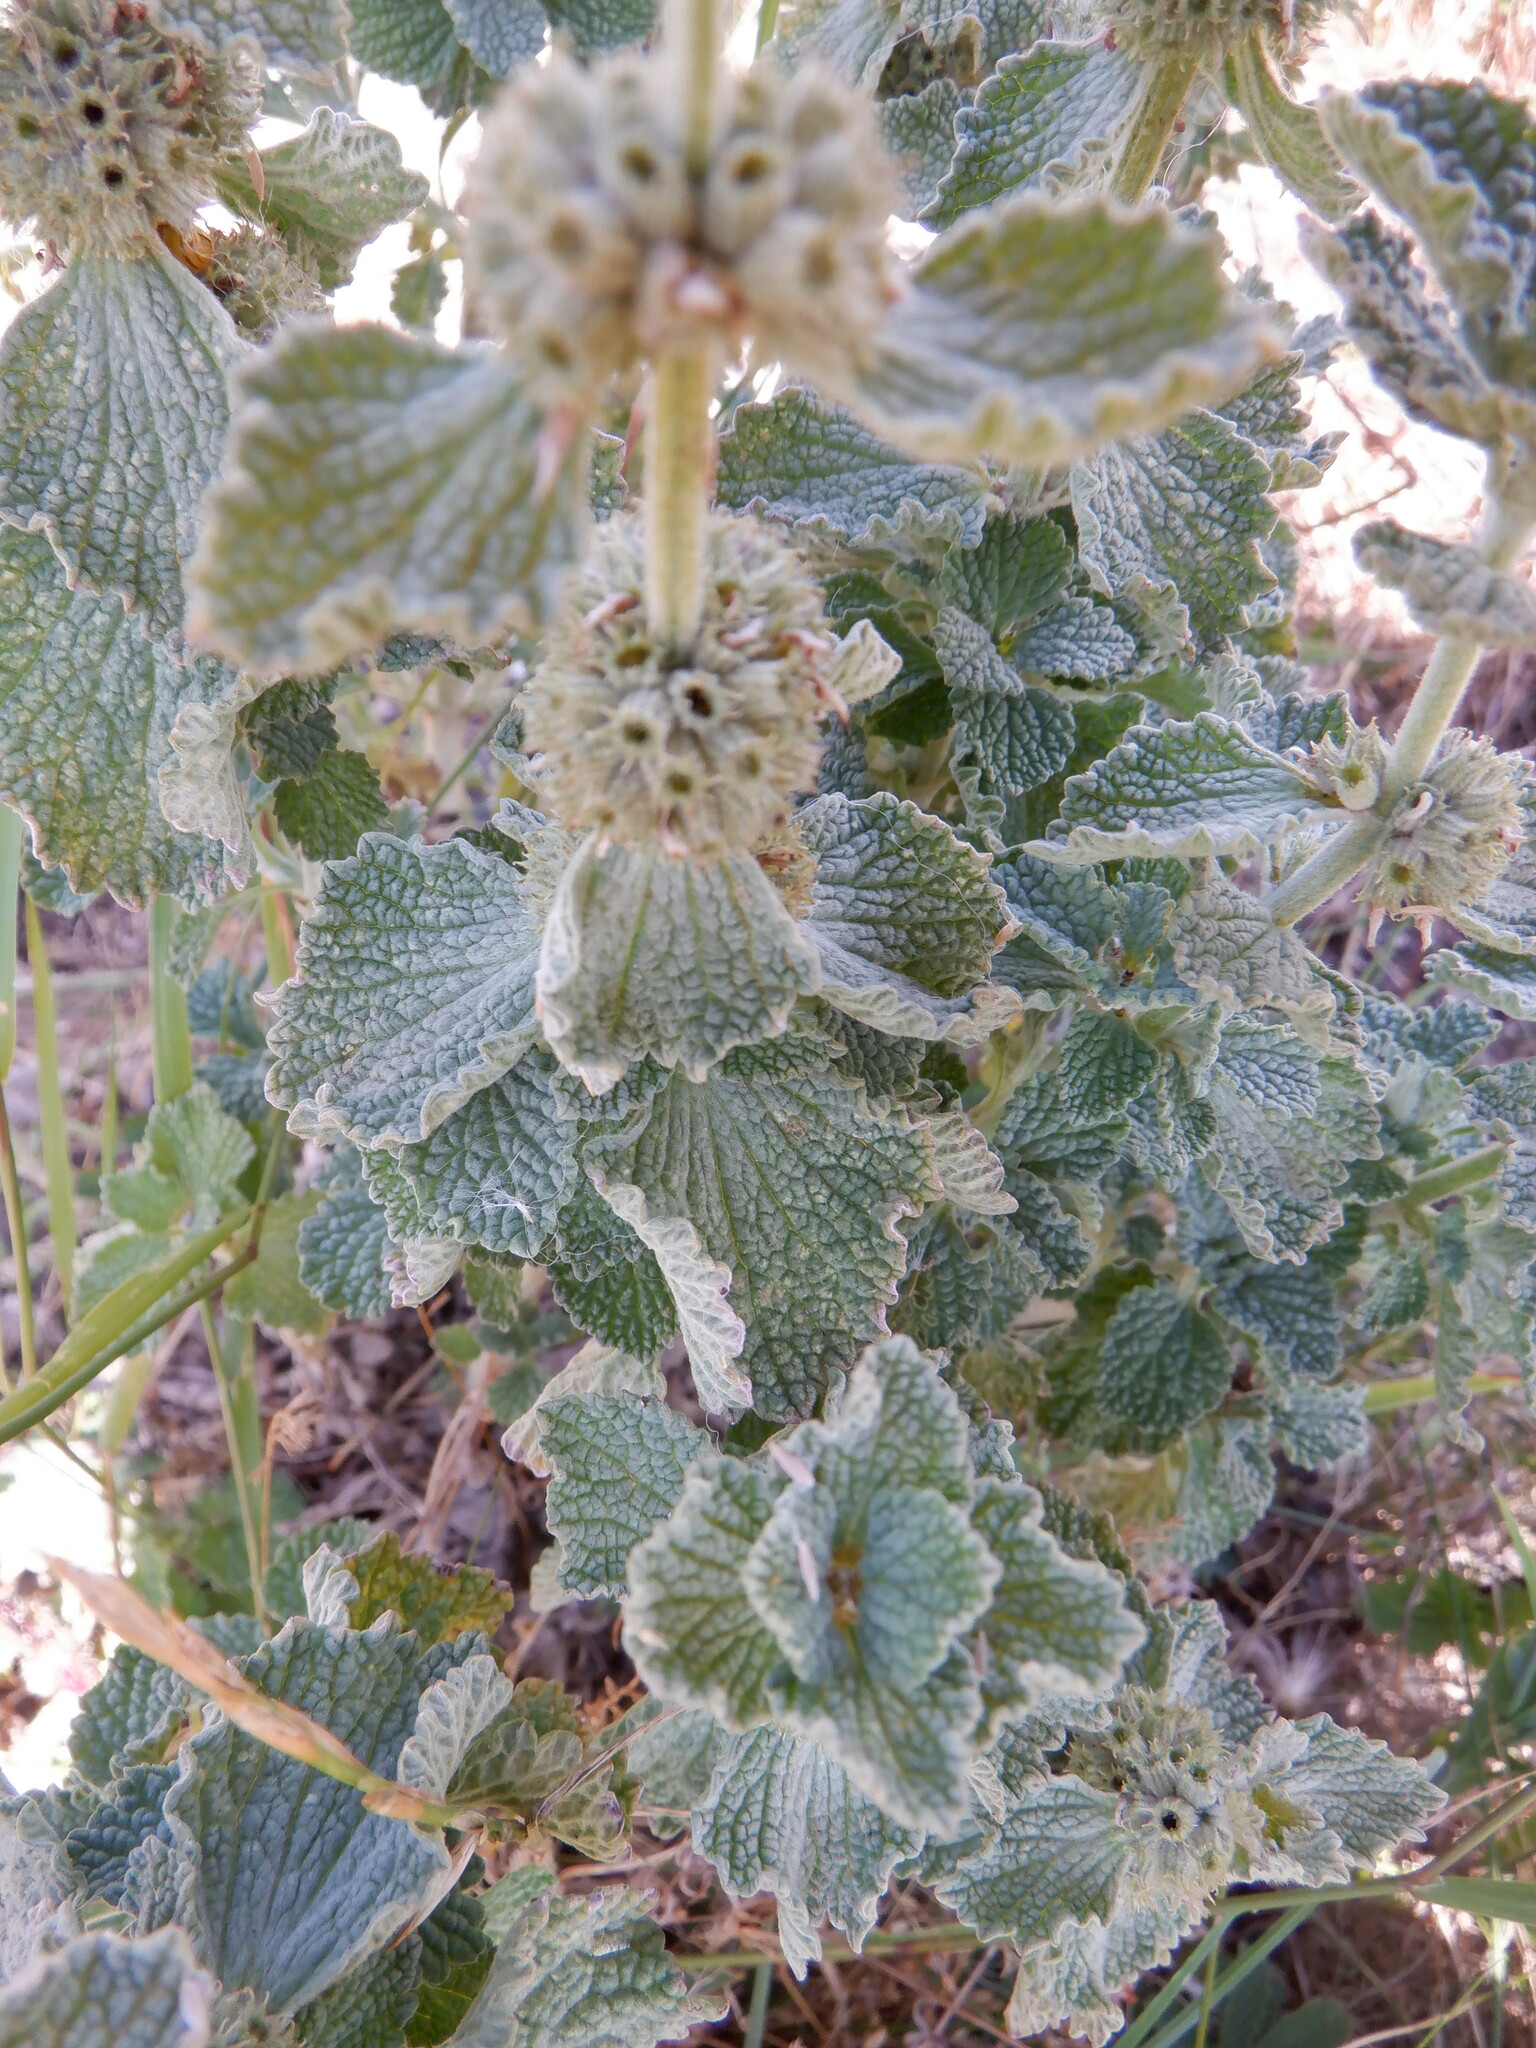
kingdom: Plantae
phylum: Tracheophyta
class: Magnoliopsida
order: Lamiales
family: Lamiaceae
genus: Marrubium
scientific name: Marrubium vulgare
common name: Horehound
